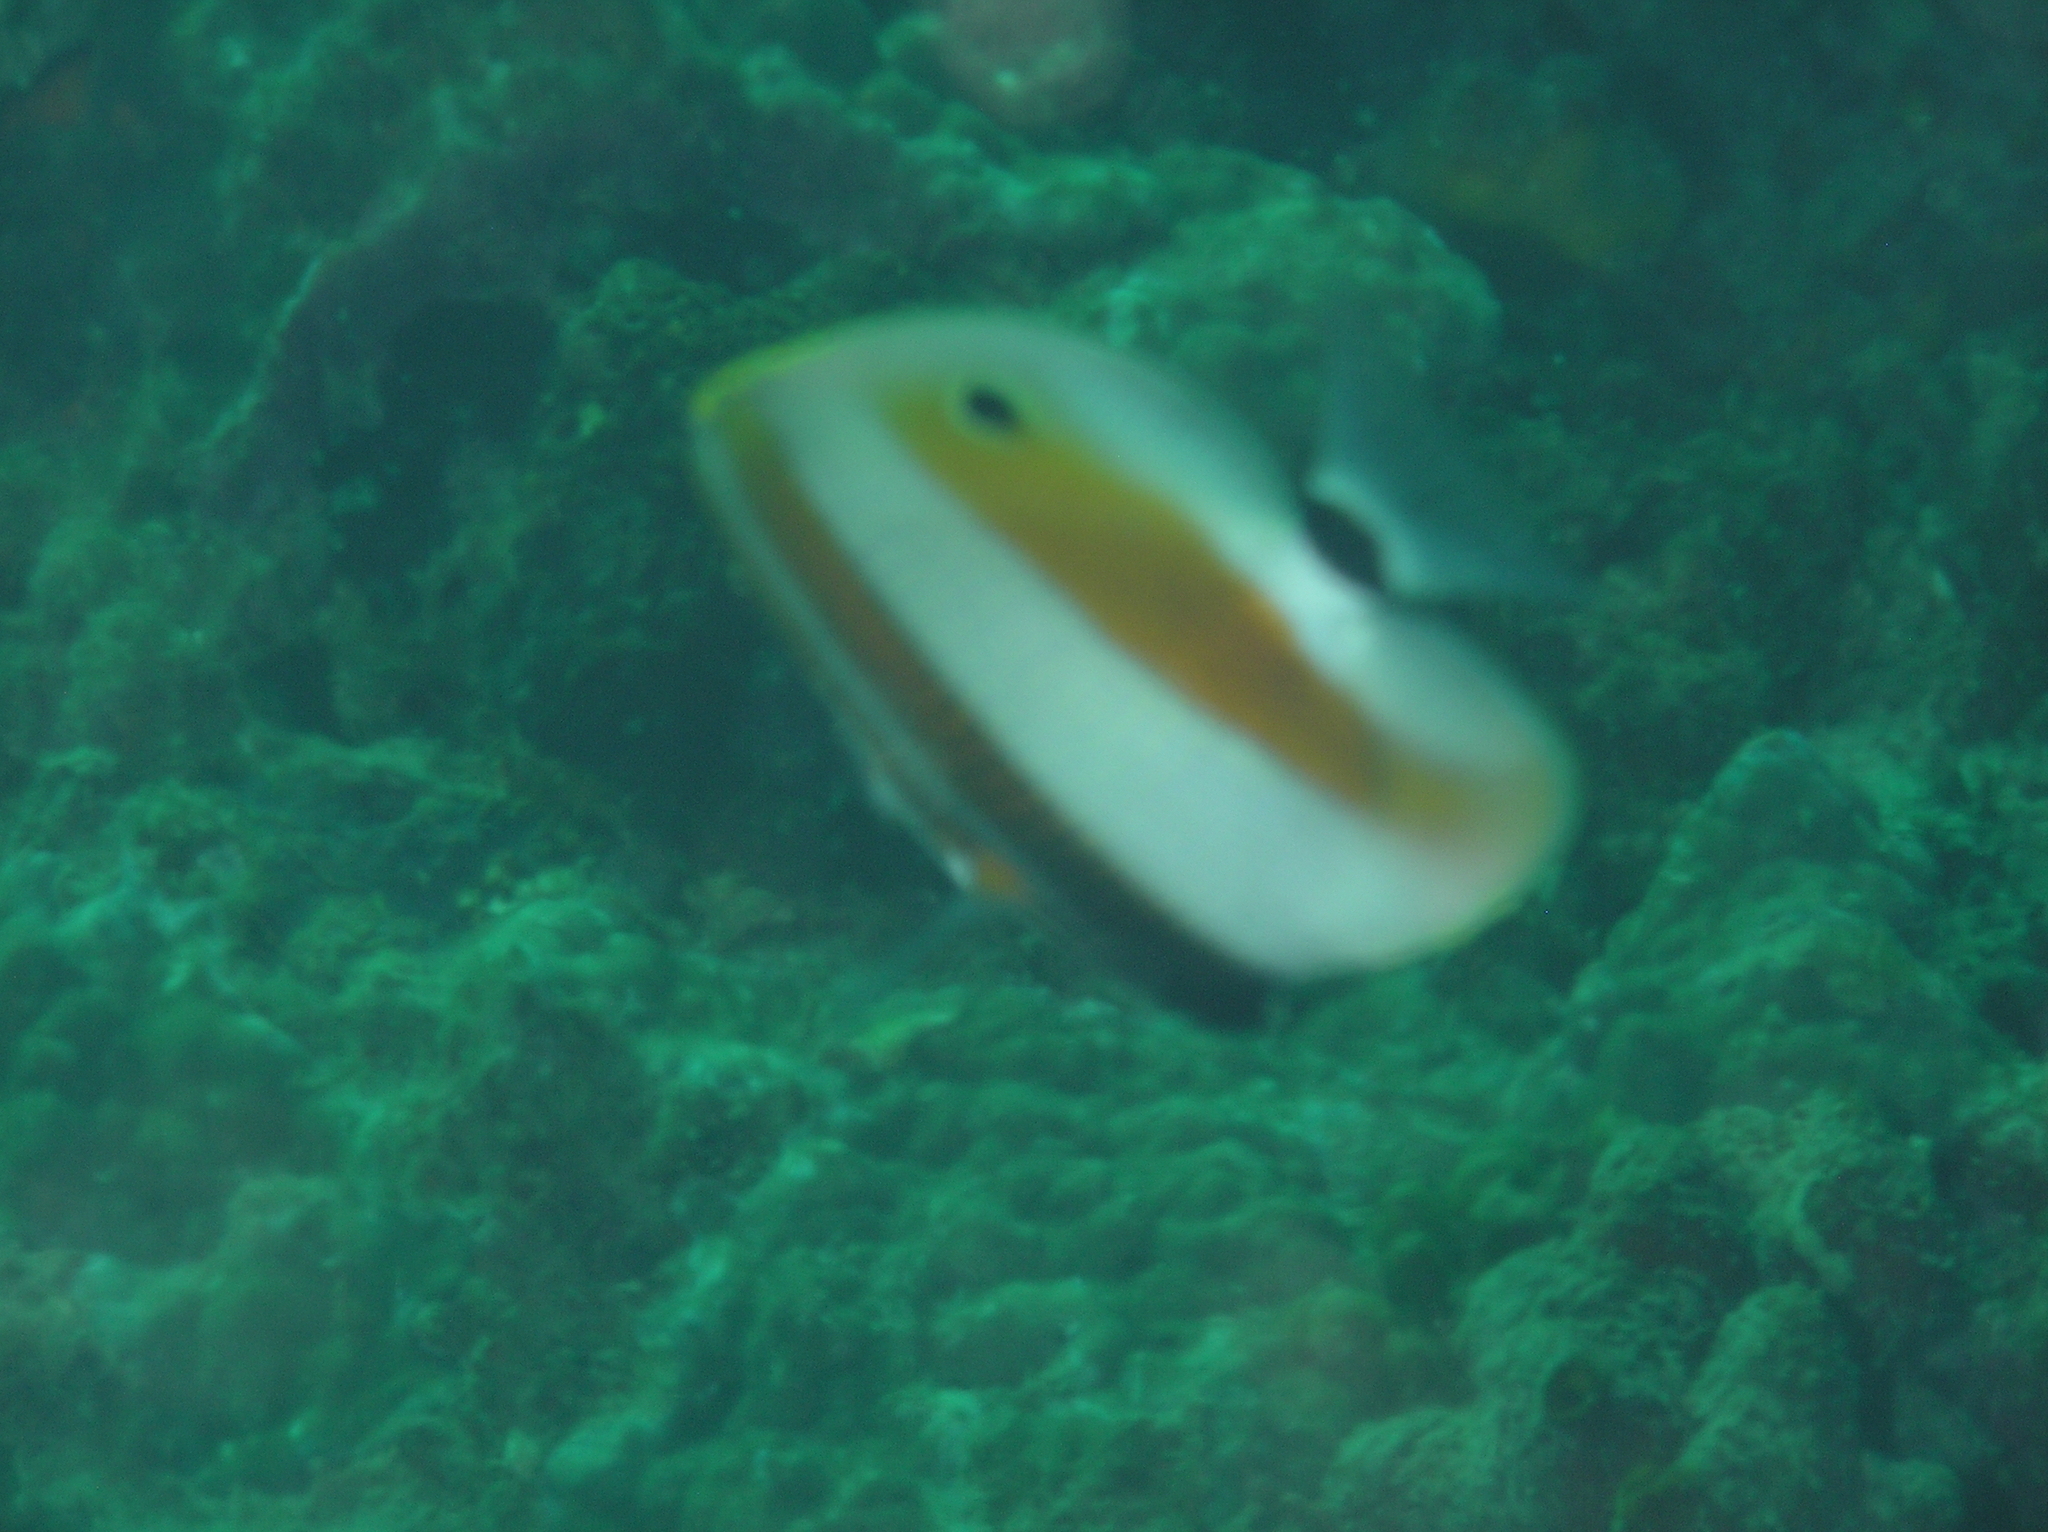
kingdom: Animalia
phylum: Chordata
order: Perciformes
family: Chaetodontidae
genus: Coradion
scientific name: Coradion chrysozonus
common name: Orange-banded coralfish
